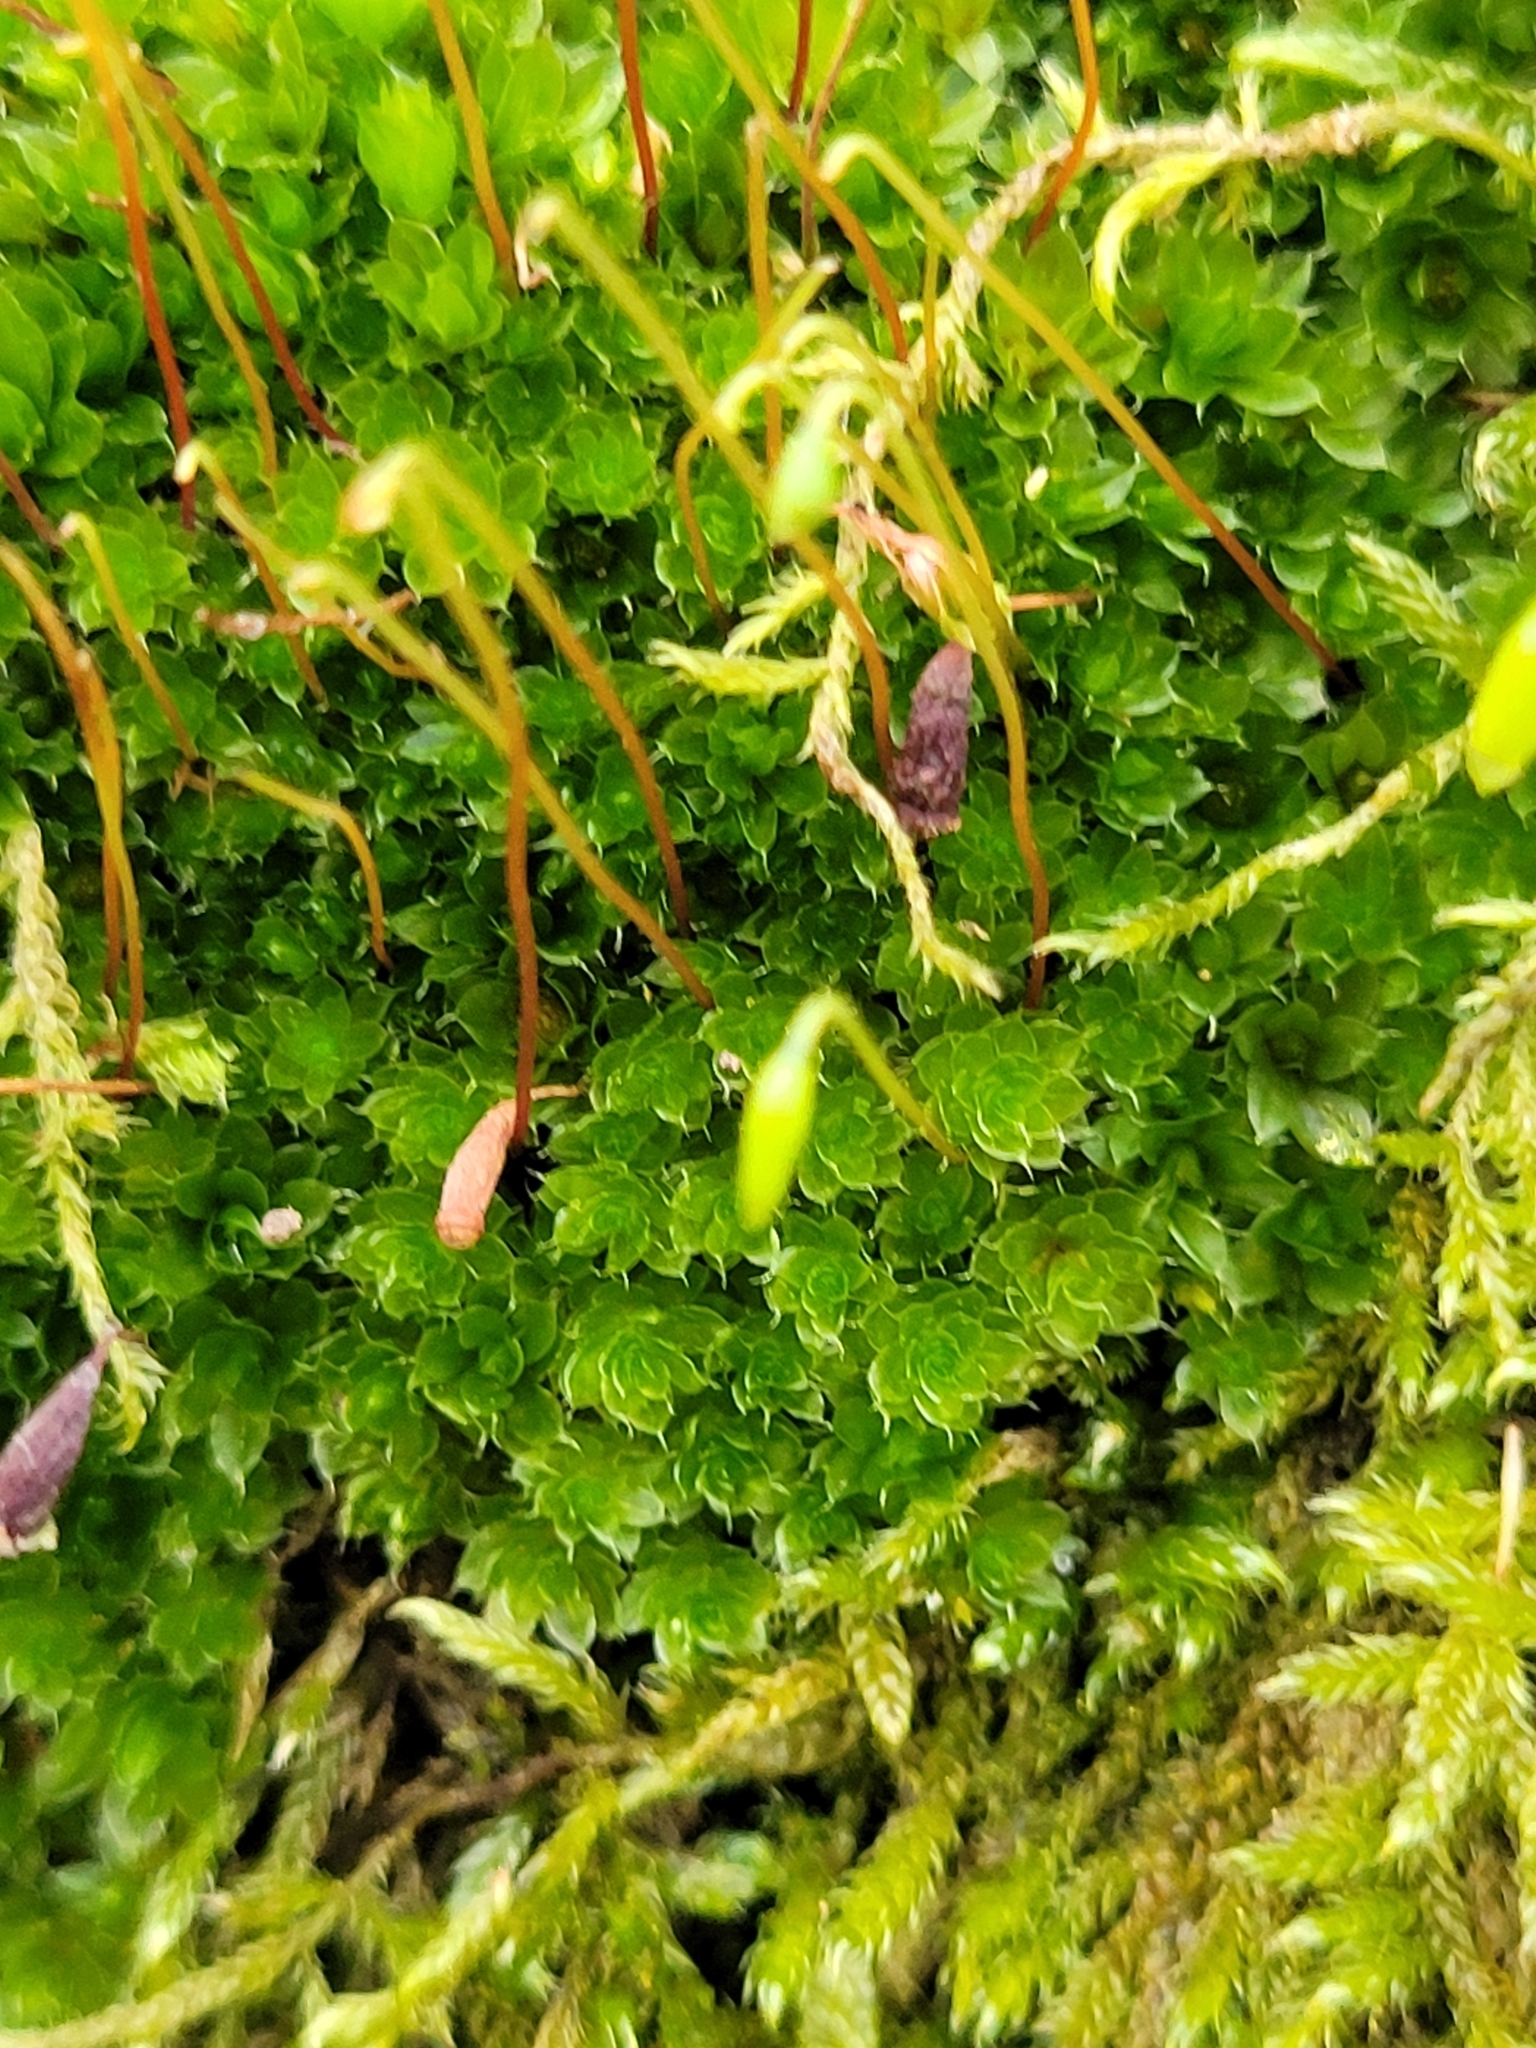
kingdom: Plantae
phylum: Bryophyta
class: Bryopsida
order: Bryales
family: Bryaceae
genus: Rosulabryum
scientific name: Rosulabryum capillare
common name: Capillary thread-moss
